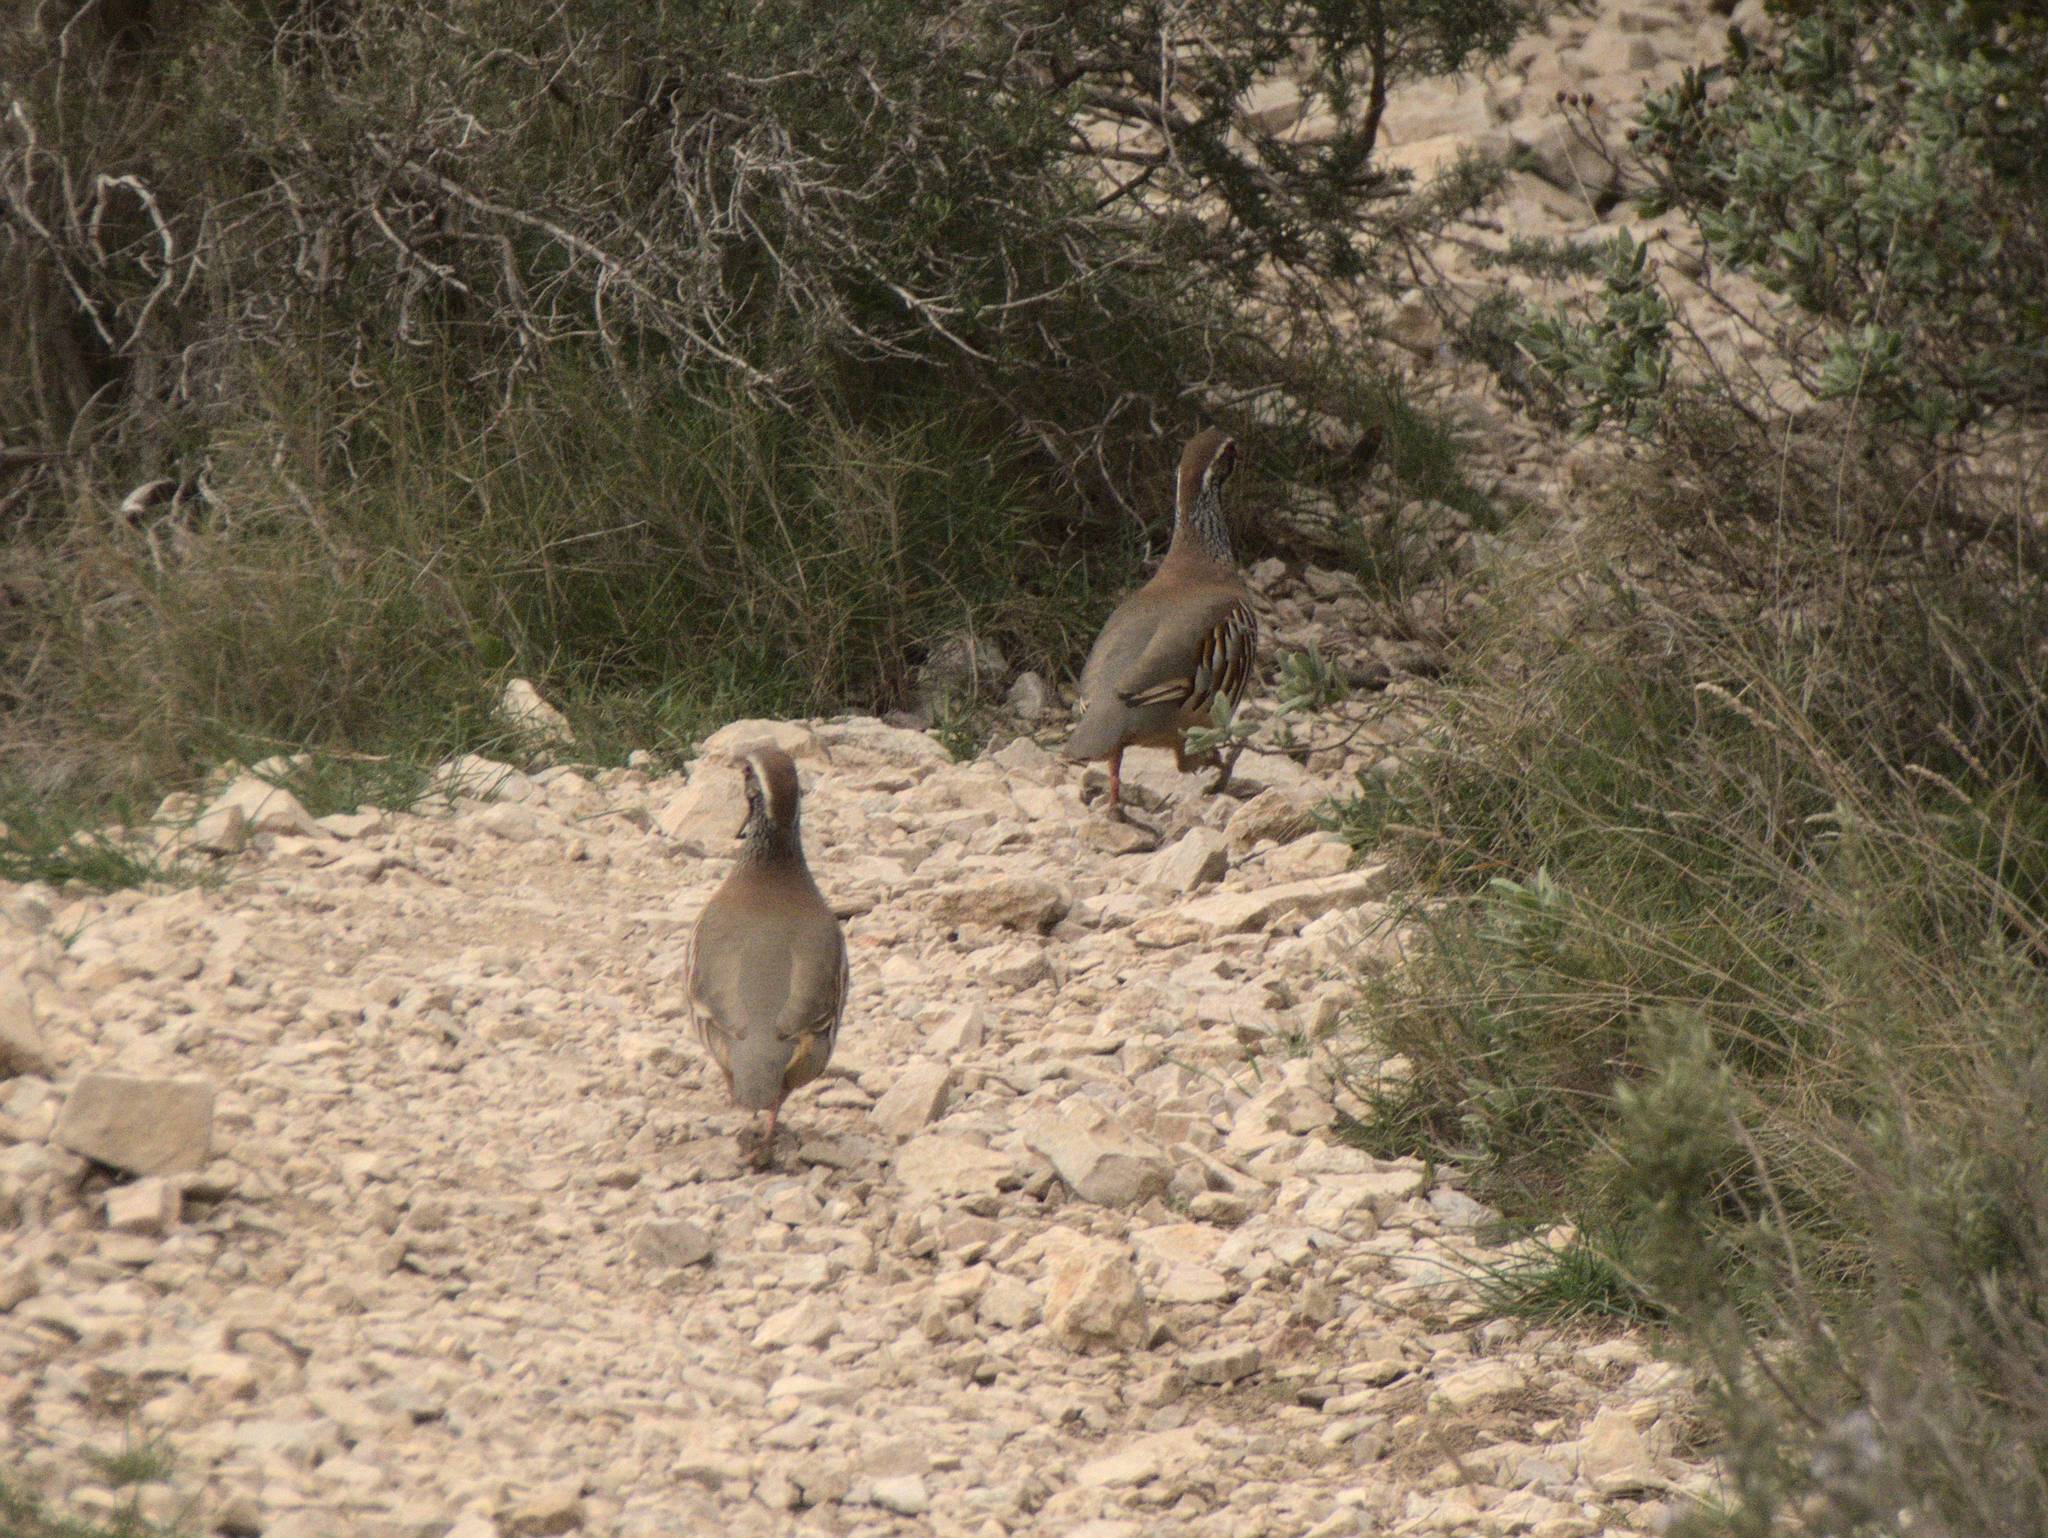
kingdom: Animalia
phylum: Chordata
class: Aves
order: Galliformes
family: Phasianidae
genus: Alectoris
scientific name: Alectoris rufa
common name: Red-legged partridge
